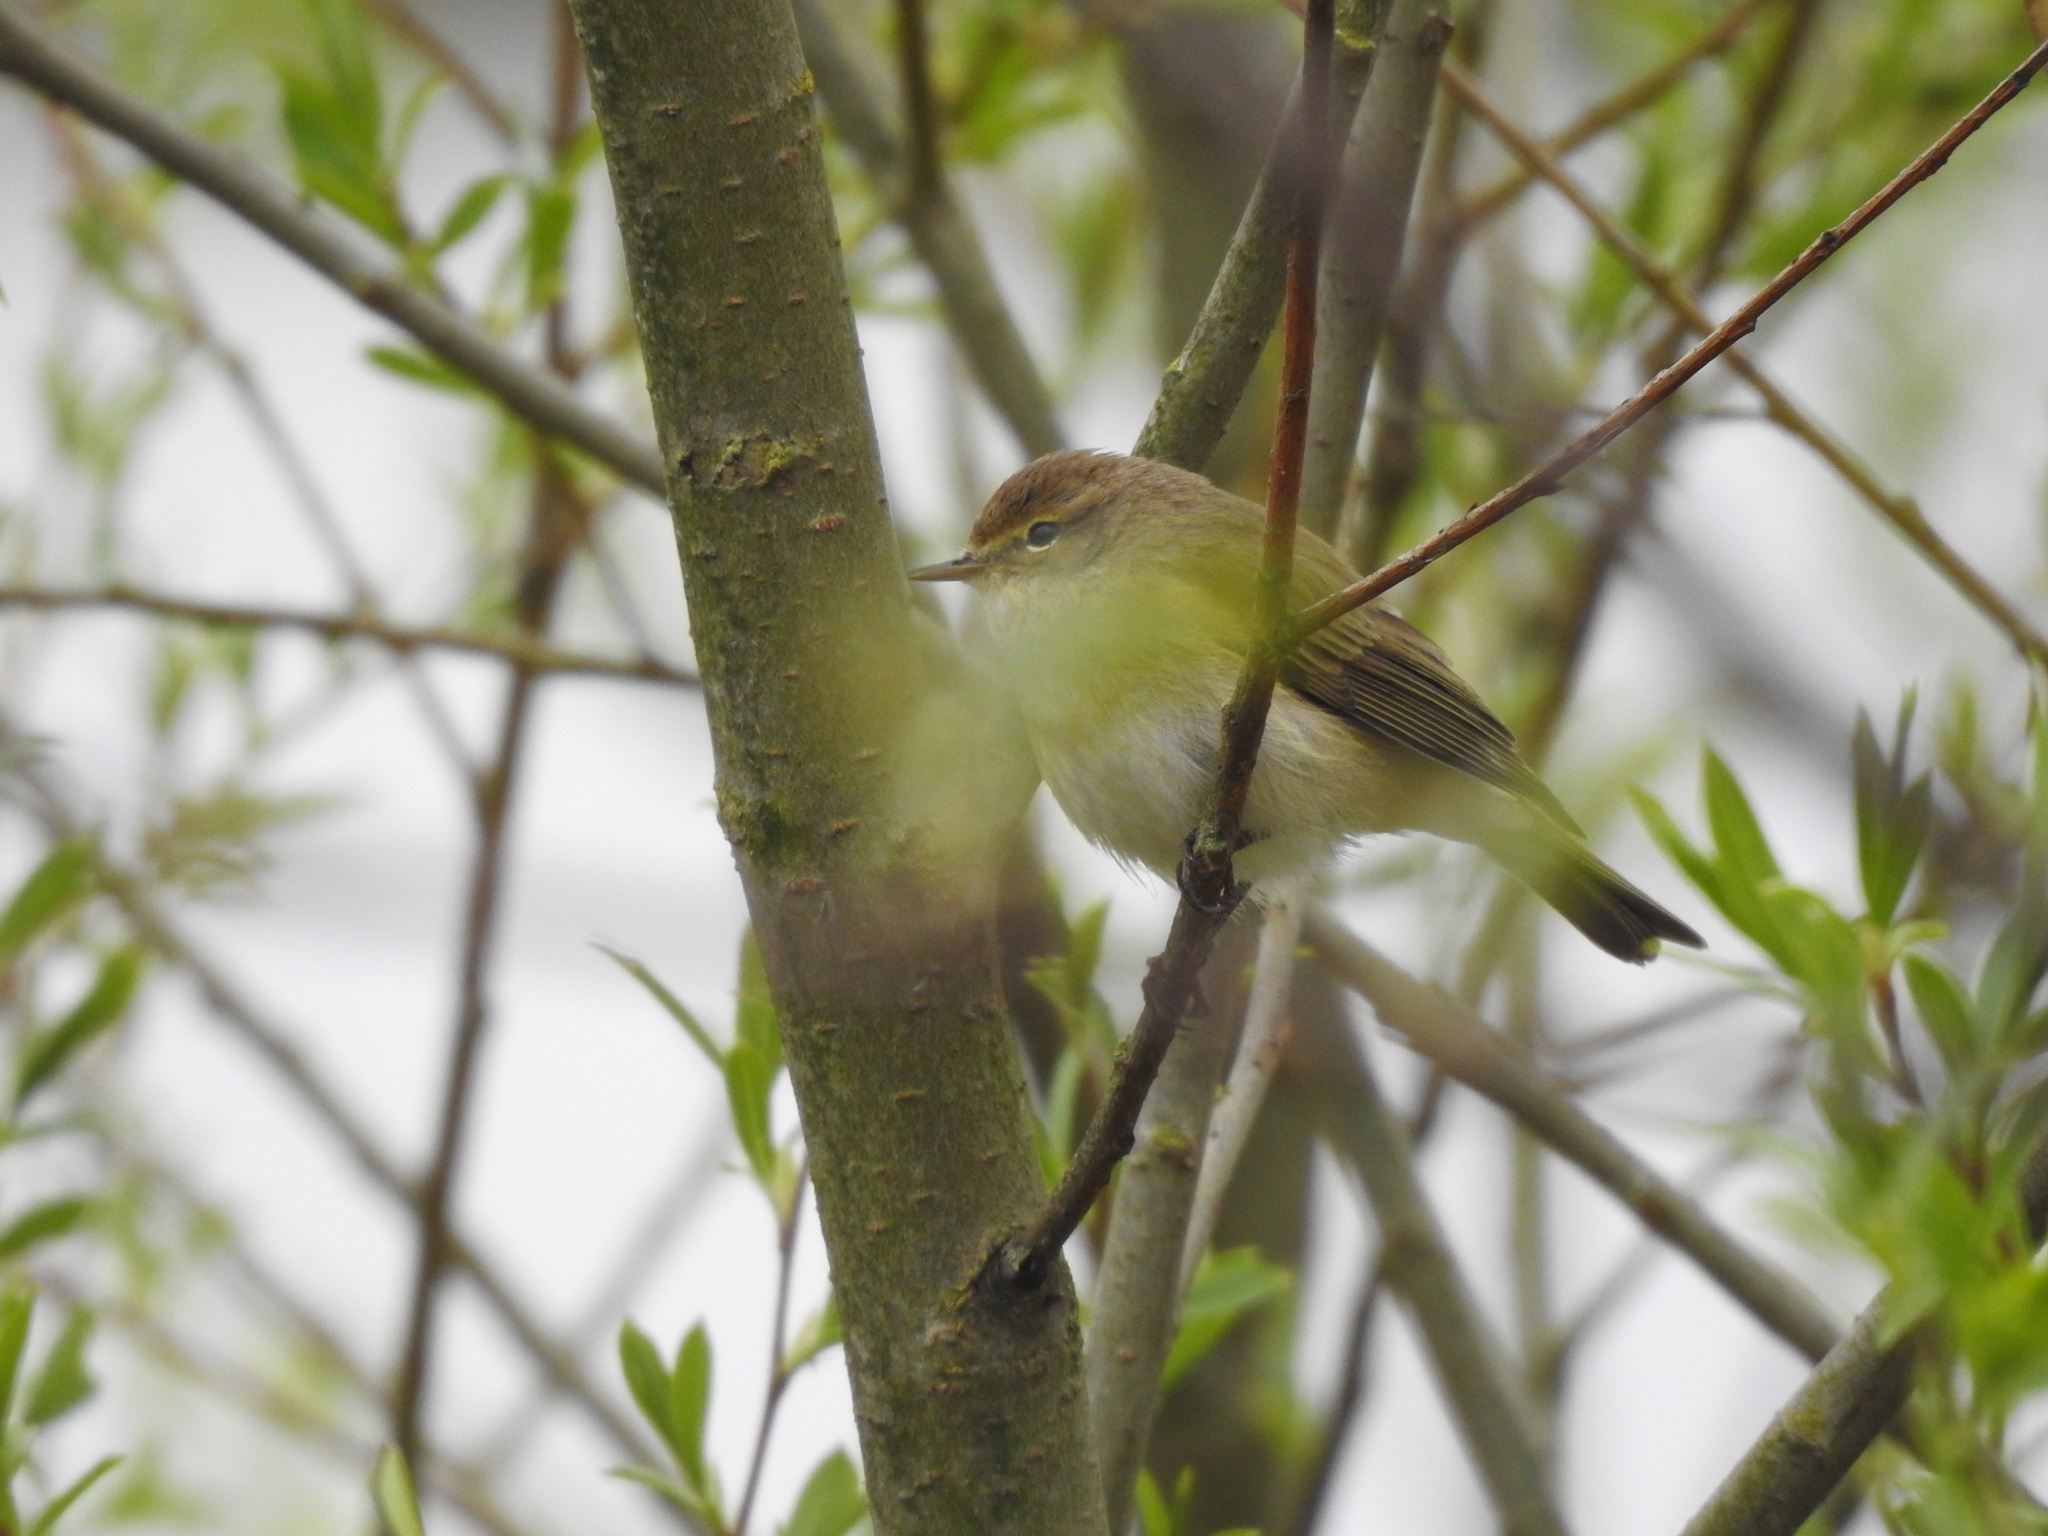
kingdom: Animalia
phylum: Chordata
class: Aves
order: Passeriformes
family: Phylloscopidae
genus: Phylloscopus
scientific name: Phylloscopus collybita
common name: Common chiffchaff
